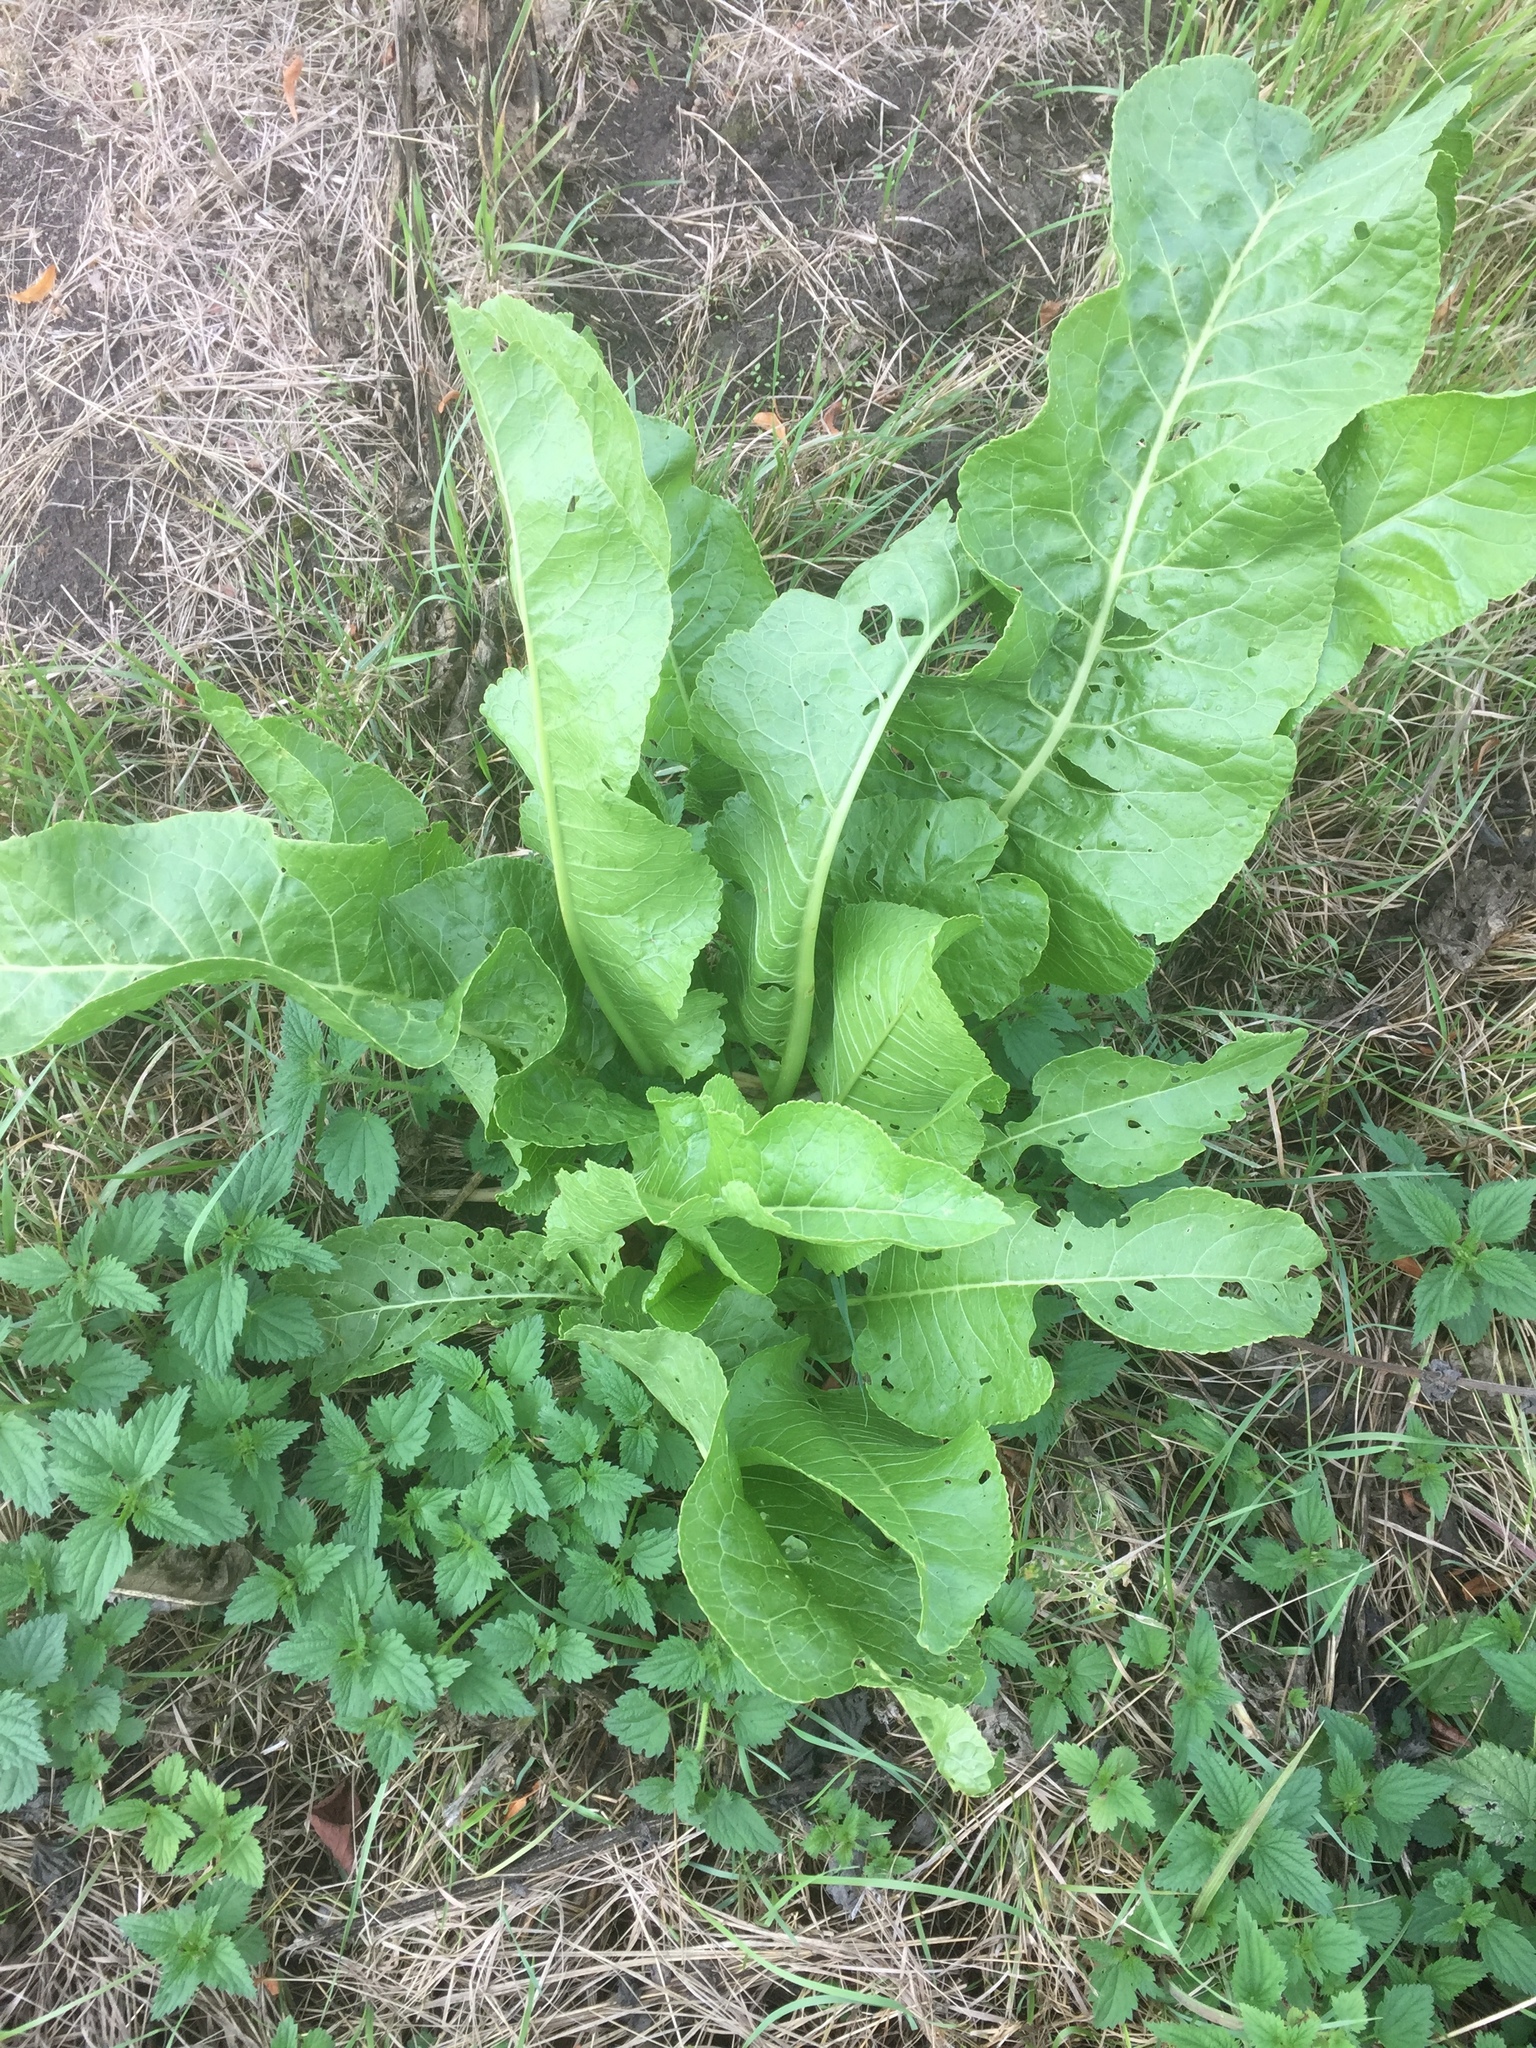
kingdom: Plantae
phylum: Tracheophyta
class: Magnoliopsida
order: Brassicales
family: Brassicaceae
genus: Armoracia
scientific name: Armoracia rusticana
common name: Horseradish
